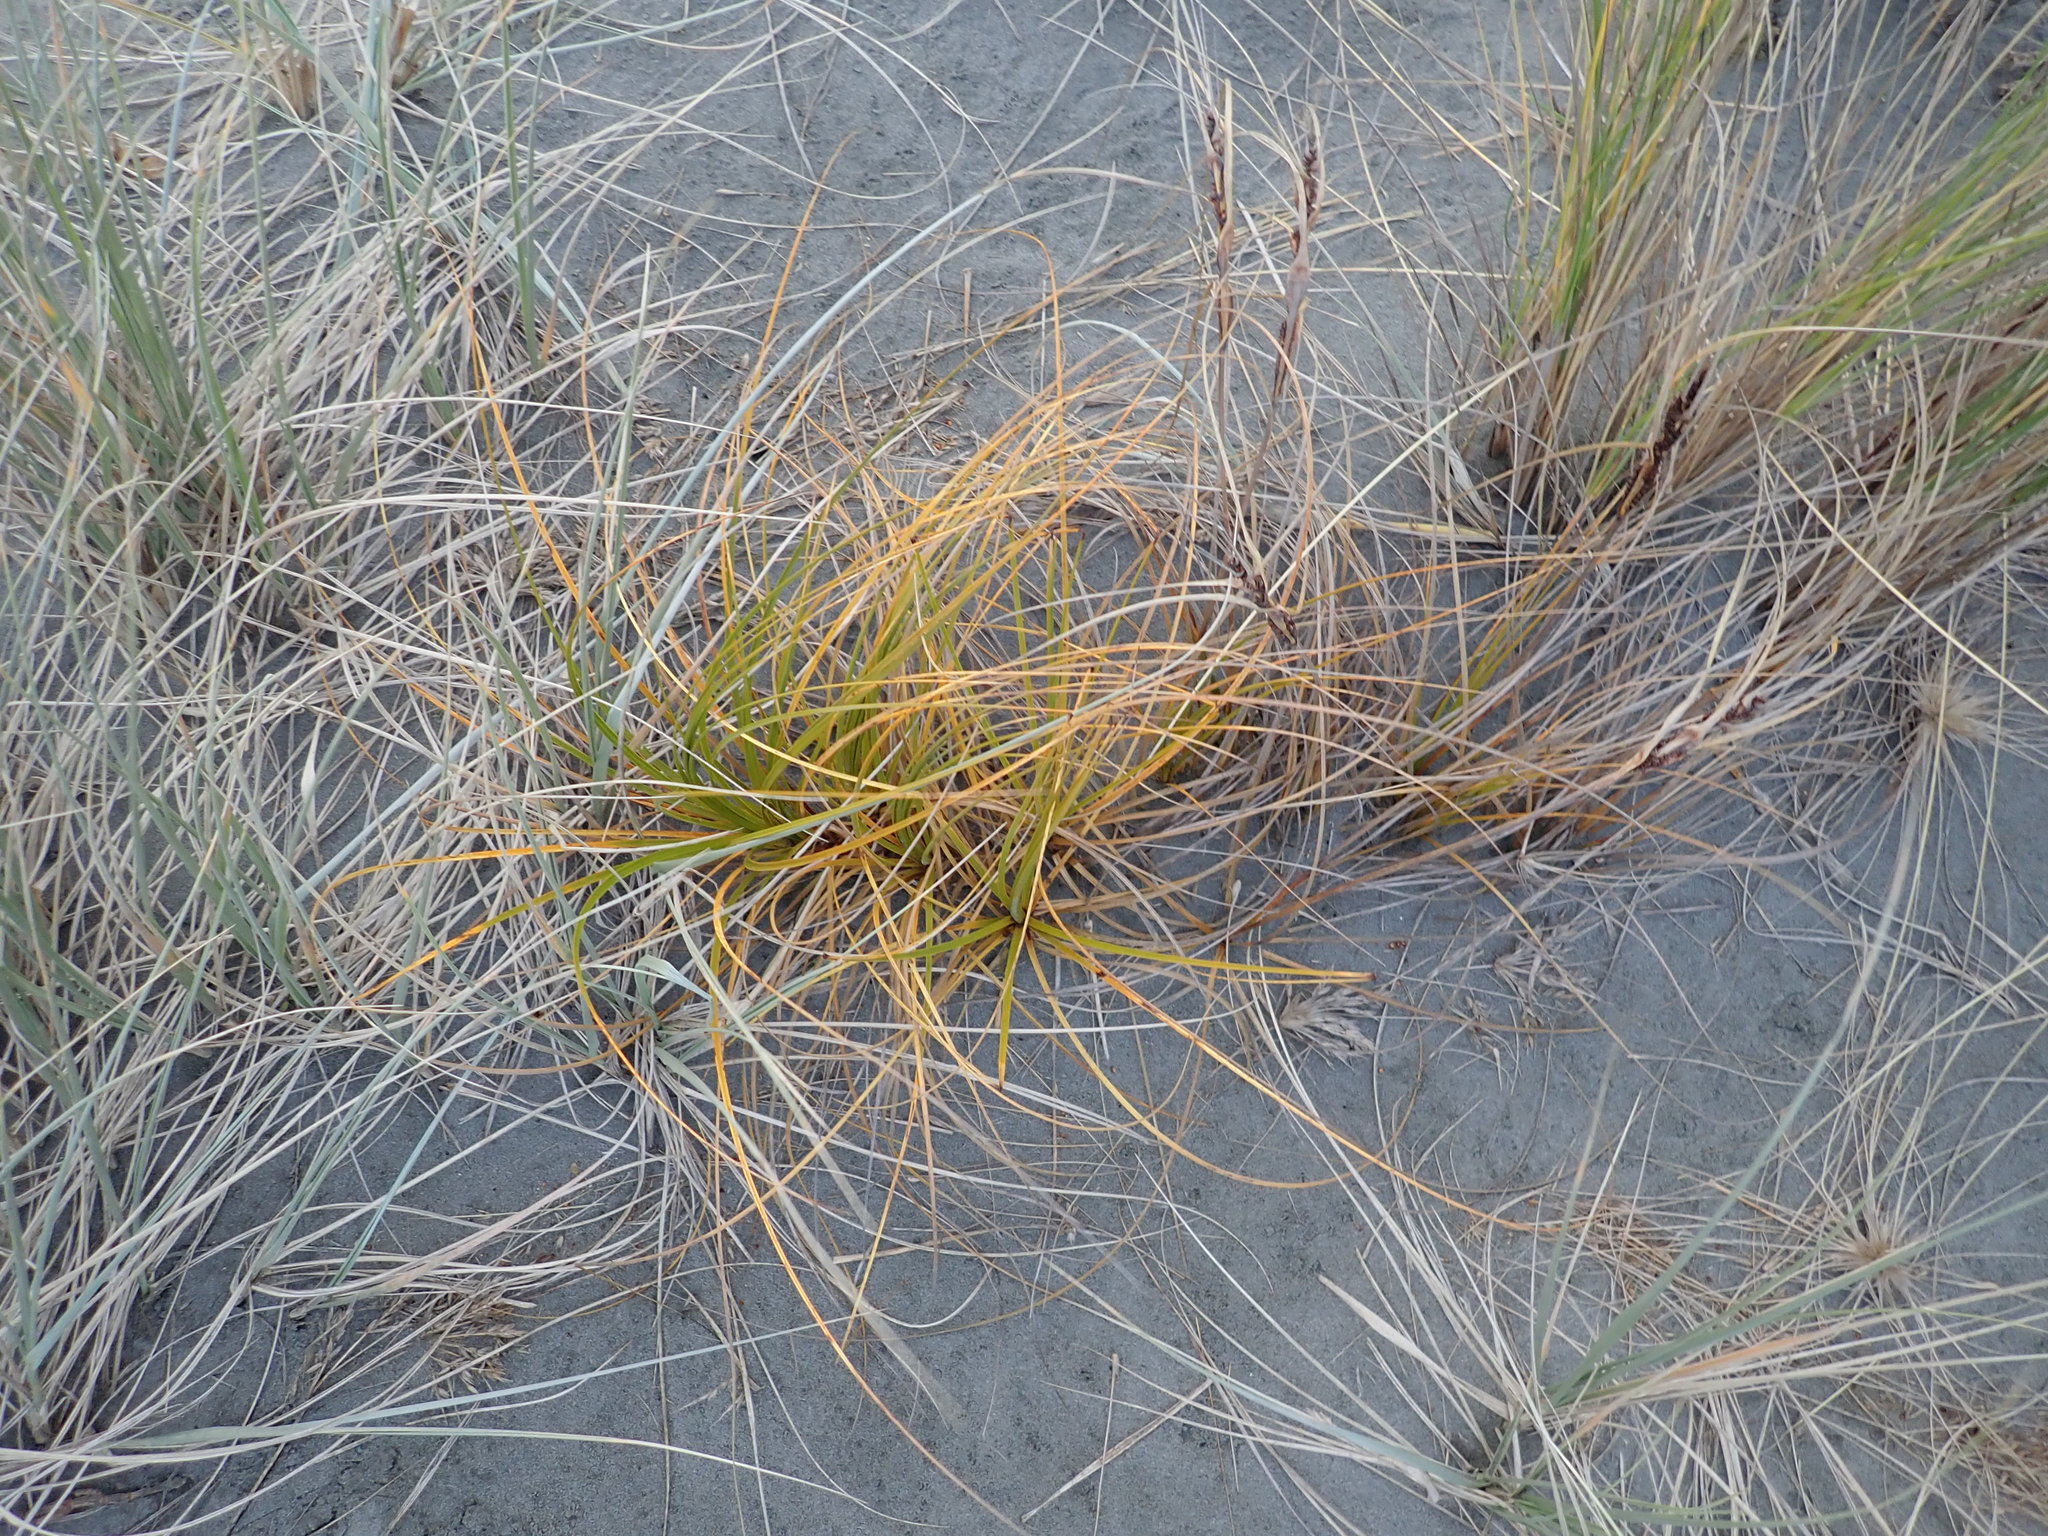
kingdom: Plantae
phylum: Tracheophyta
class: Liliopsida
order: Poales
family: Cyperaceae
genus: Ficinia
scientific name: Ficinia spiralis
